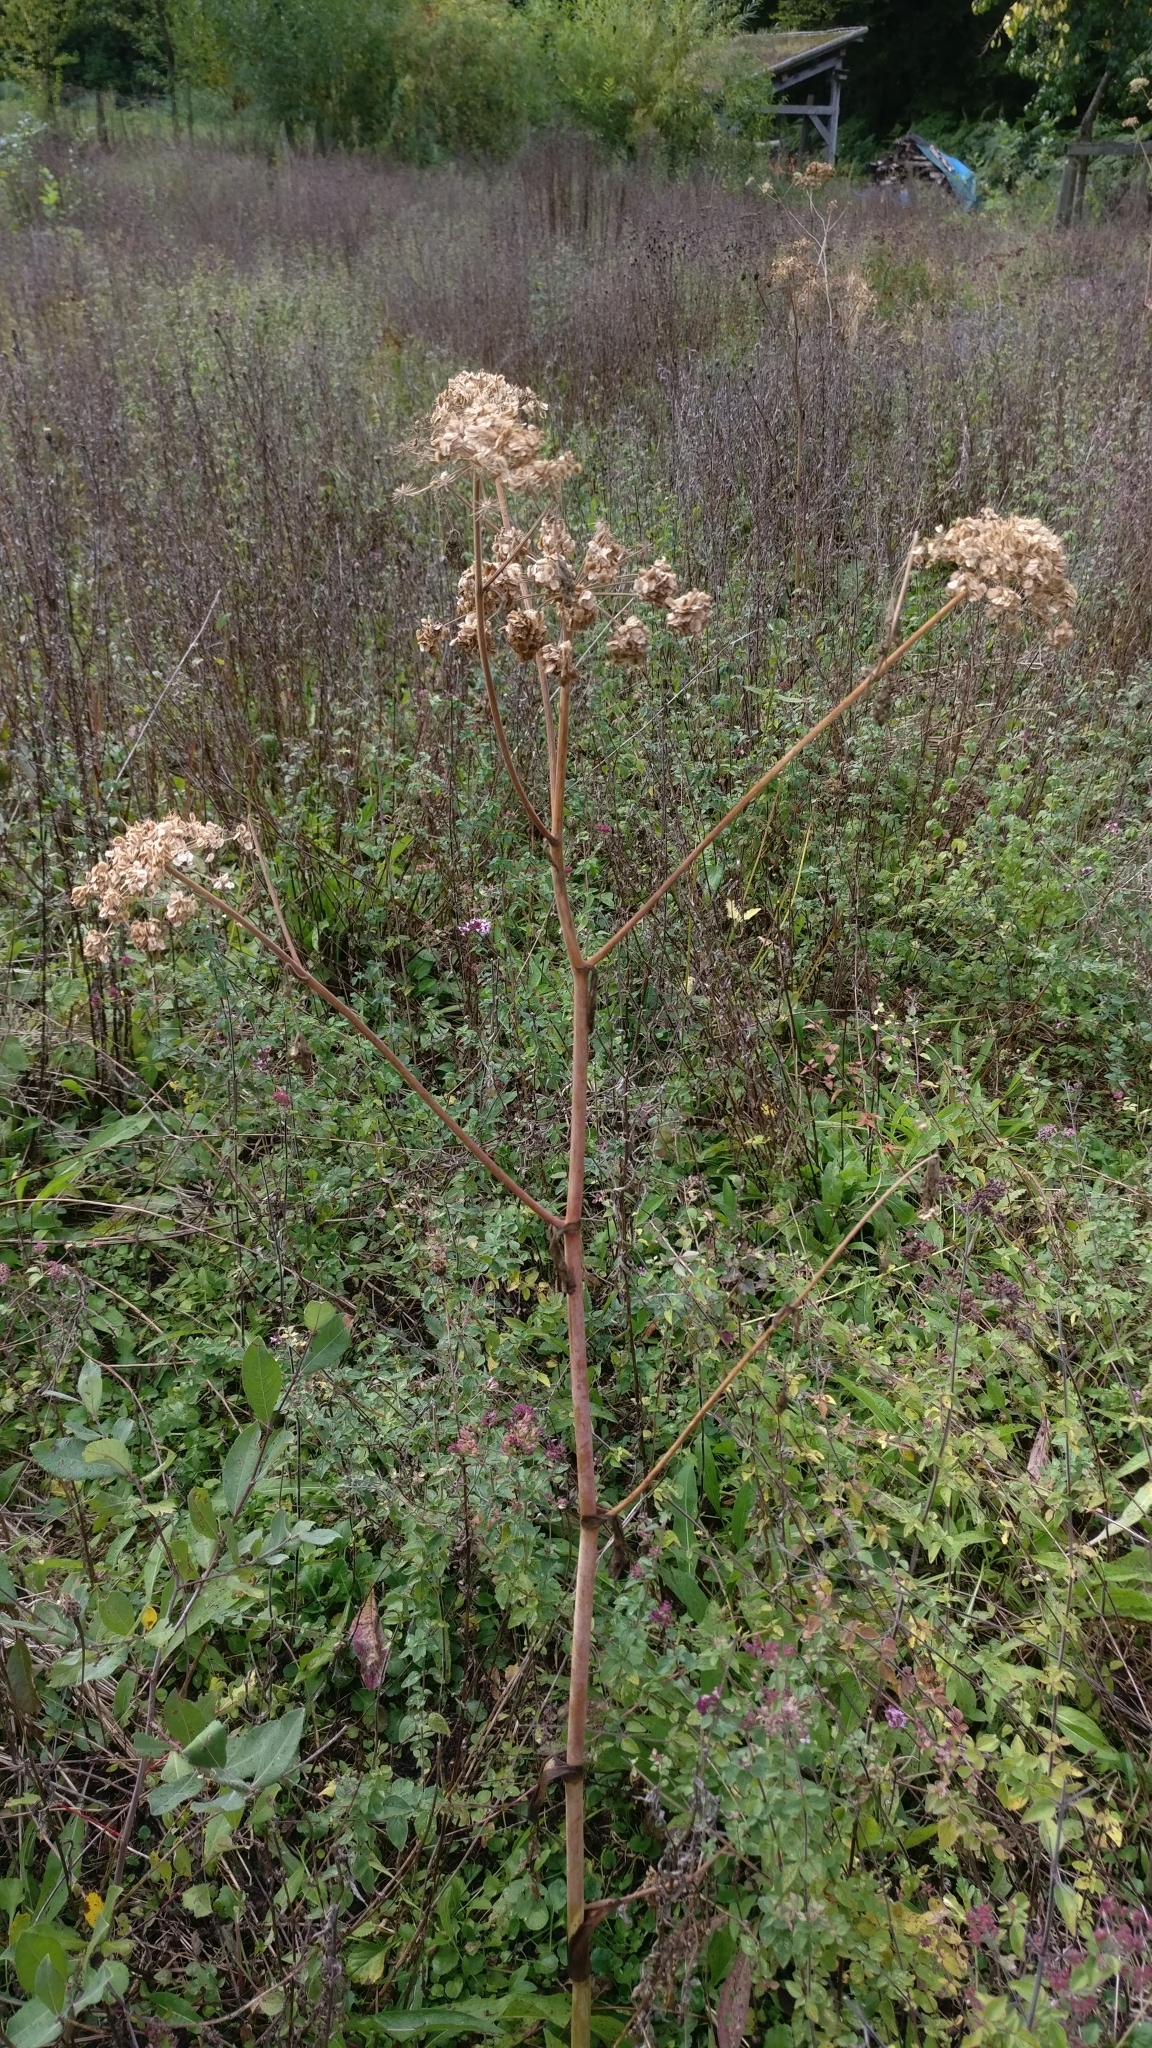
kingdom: Plantae
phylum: Tracheophyta
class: Magnoliopsida
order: Apiales
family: Apiaceae
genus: Angelica
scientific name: Angelica sylvestris
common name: Wild angelica
